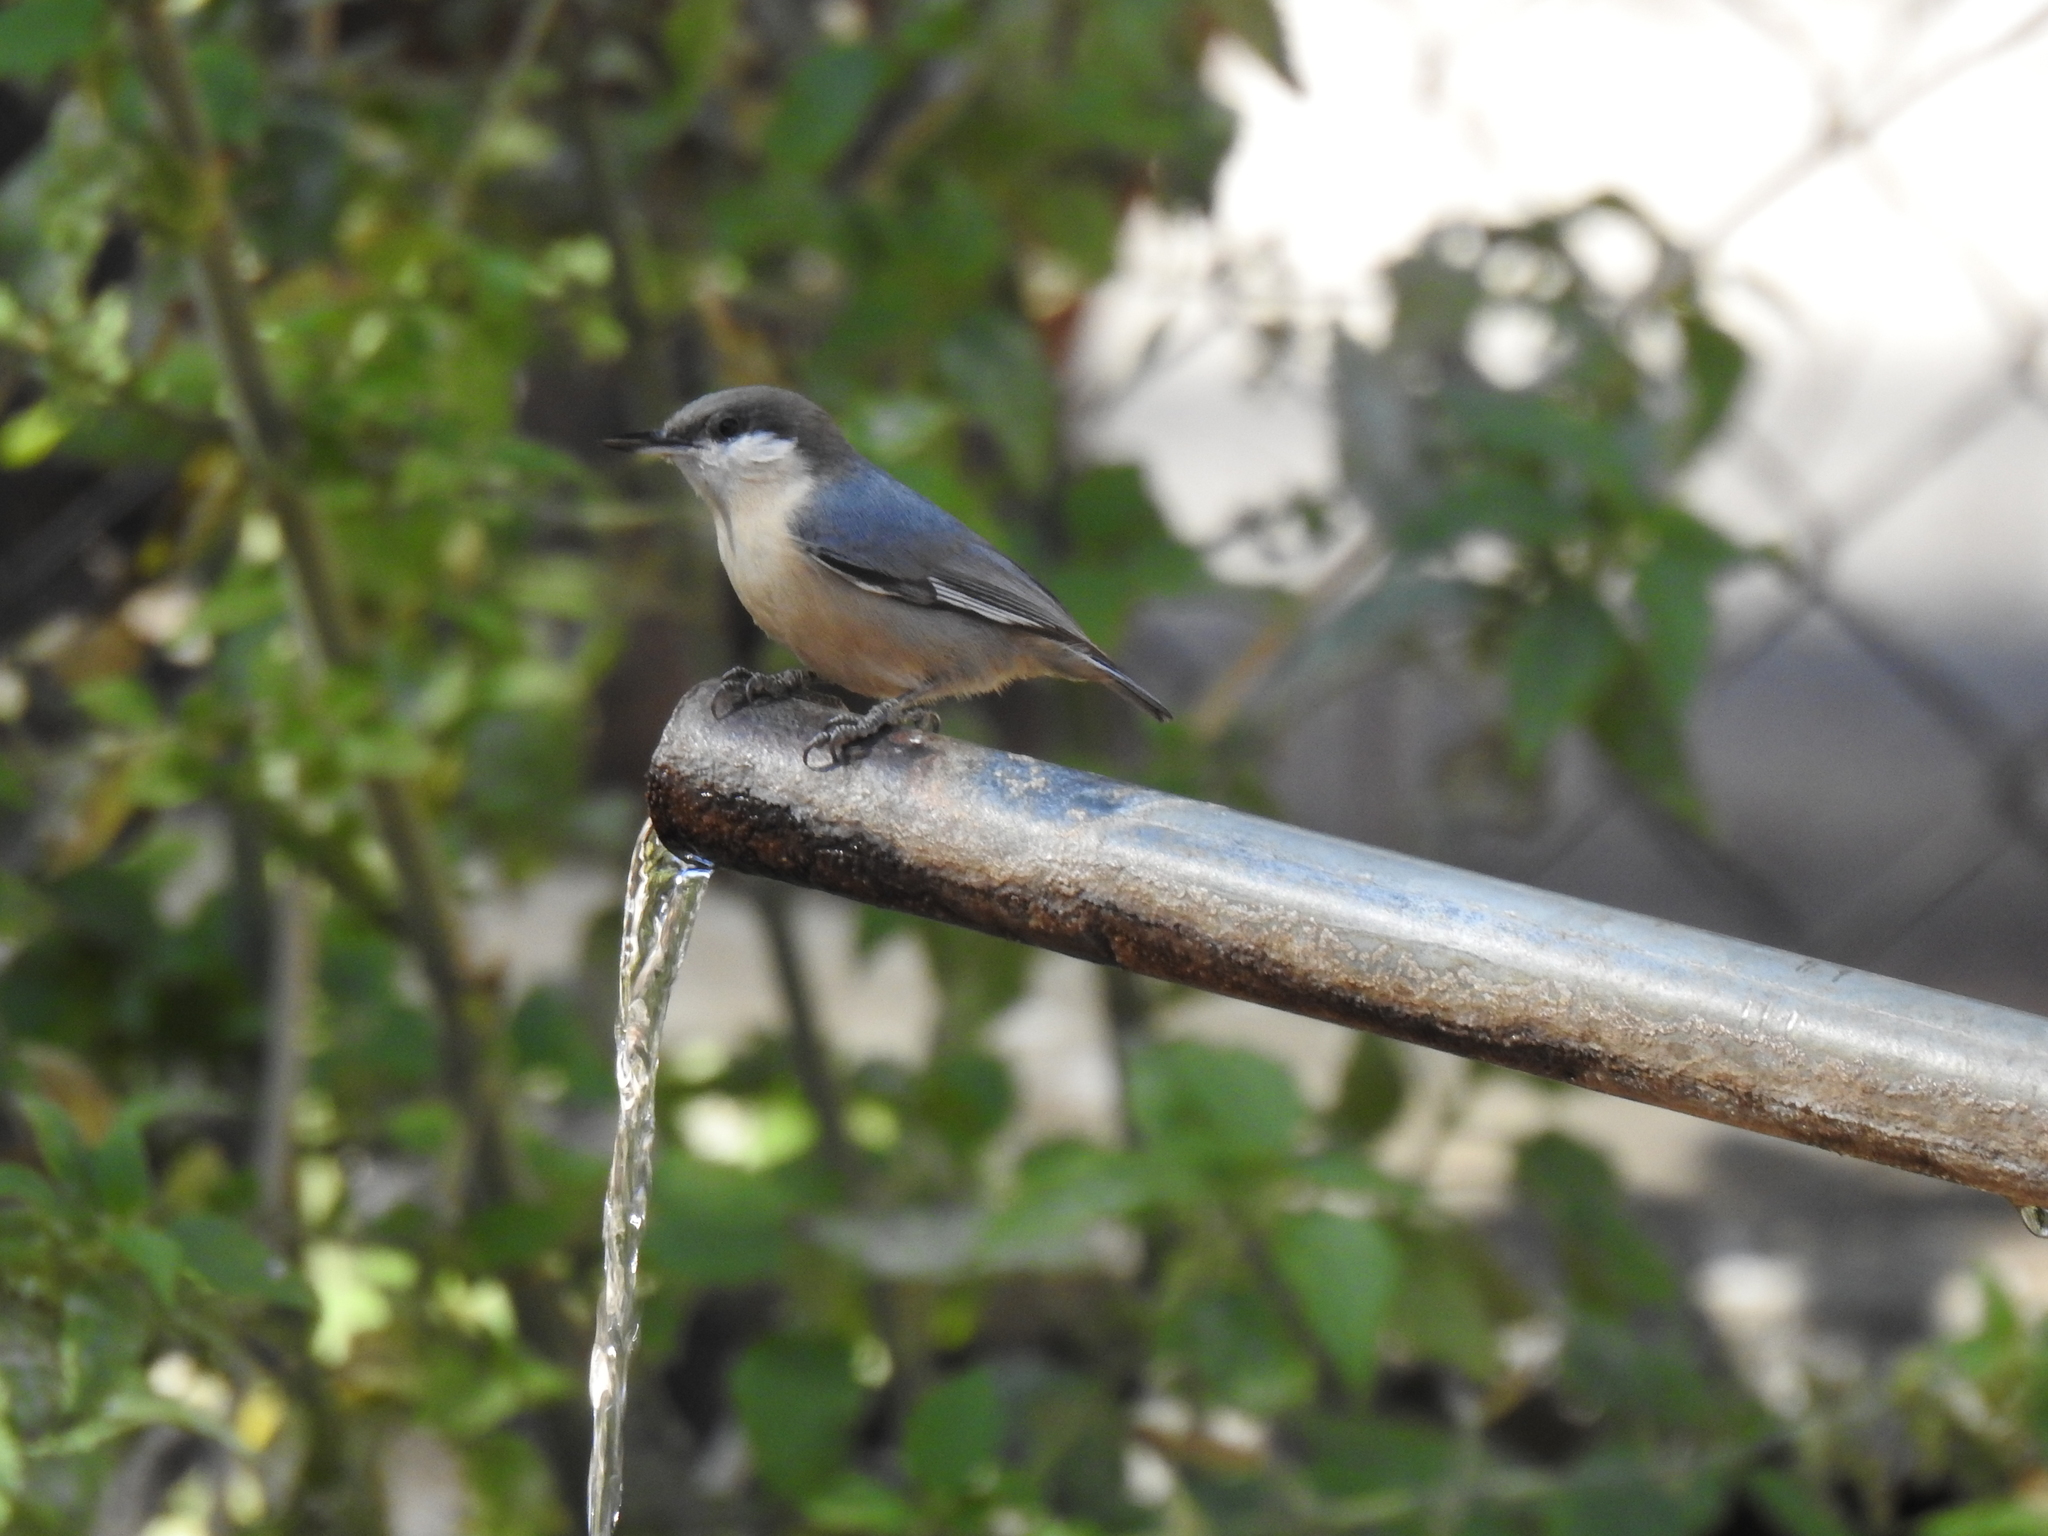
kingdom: Animalia
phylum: Chordata
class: Aves
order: Passeriformes
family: Sittidae
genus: Sitta
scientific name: Sitta pygmaea
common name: Pygmy nuthatch
